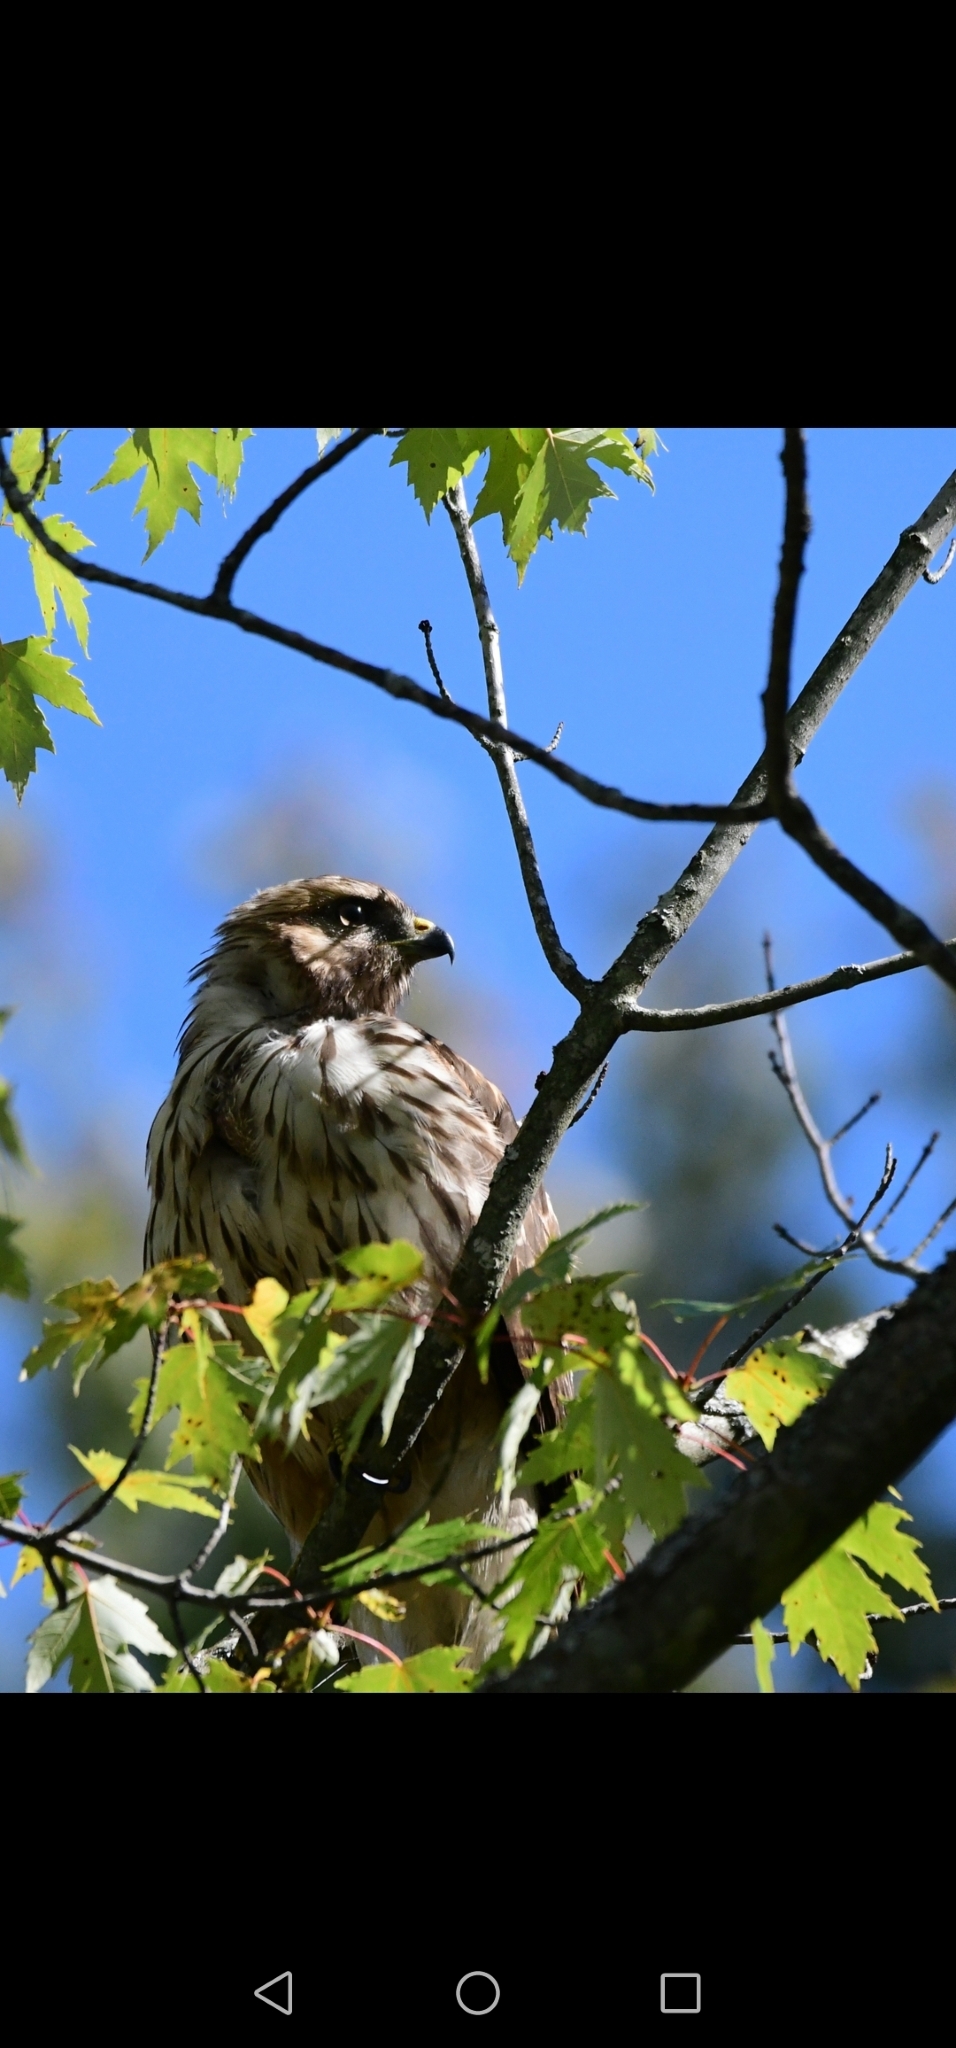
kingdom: Animalia
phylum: Chordata
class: Aves
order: Accipitriformes
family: Accipitridae
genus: Buteo
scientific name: Buteo platypterus
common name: Broad-winged hawk
